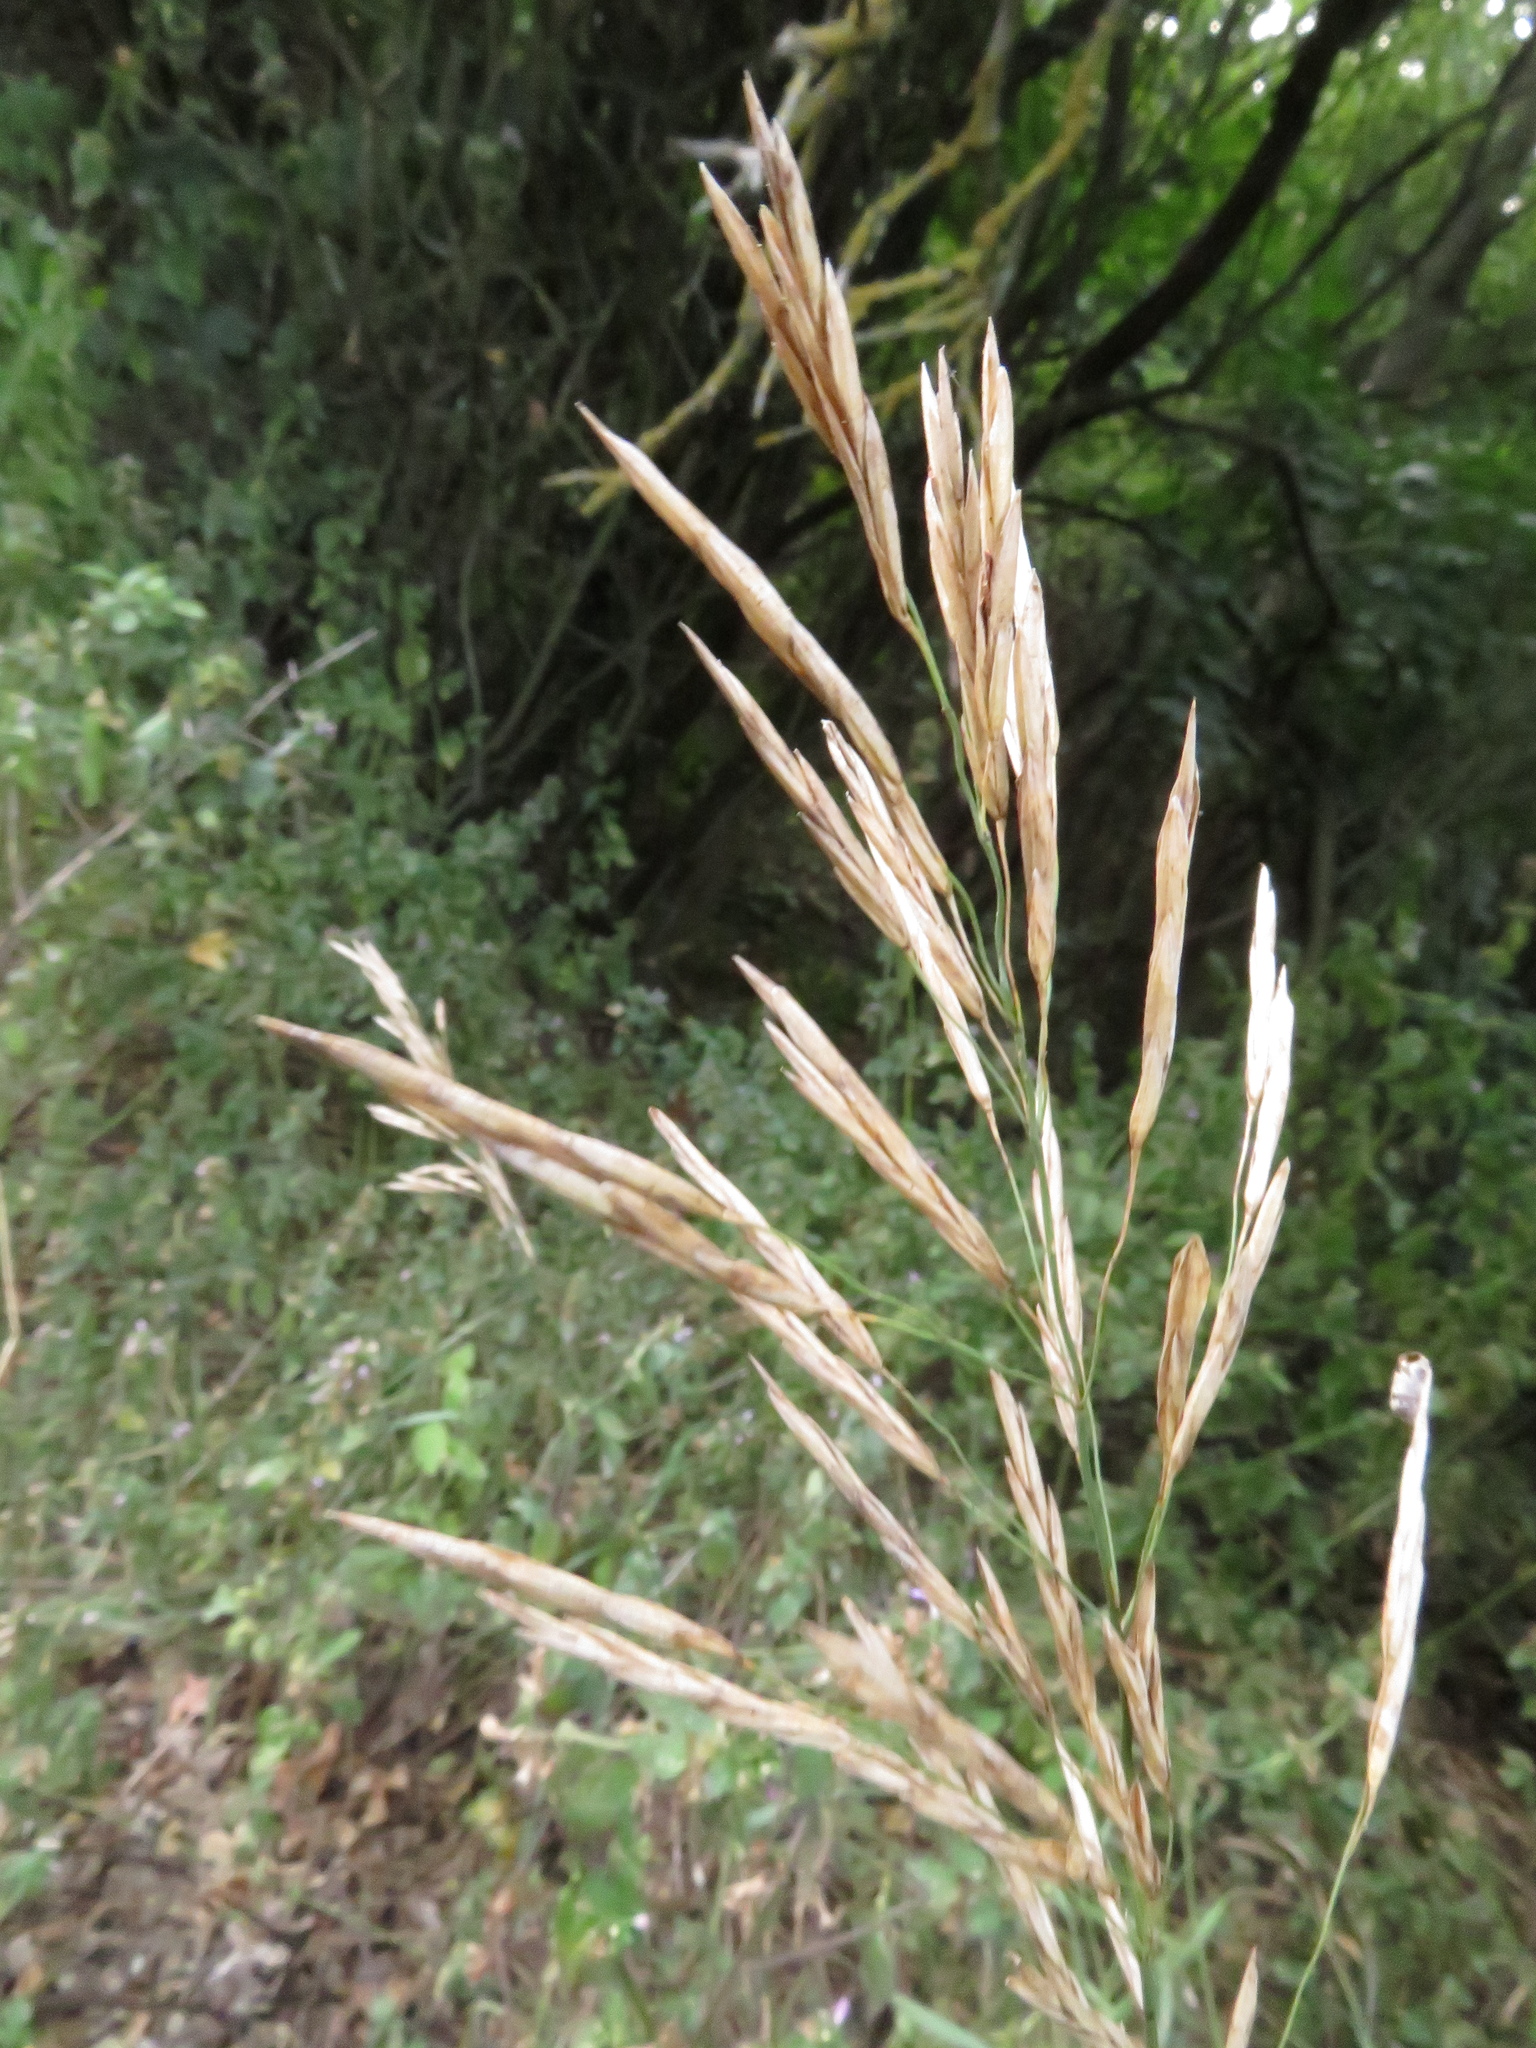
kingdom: Plantae
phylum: Tracheophyta
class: Liliopsida
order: Poales
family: Poaceae
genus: Bromus
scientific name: Bromus inermis
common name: Smooth brome
